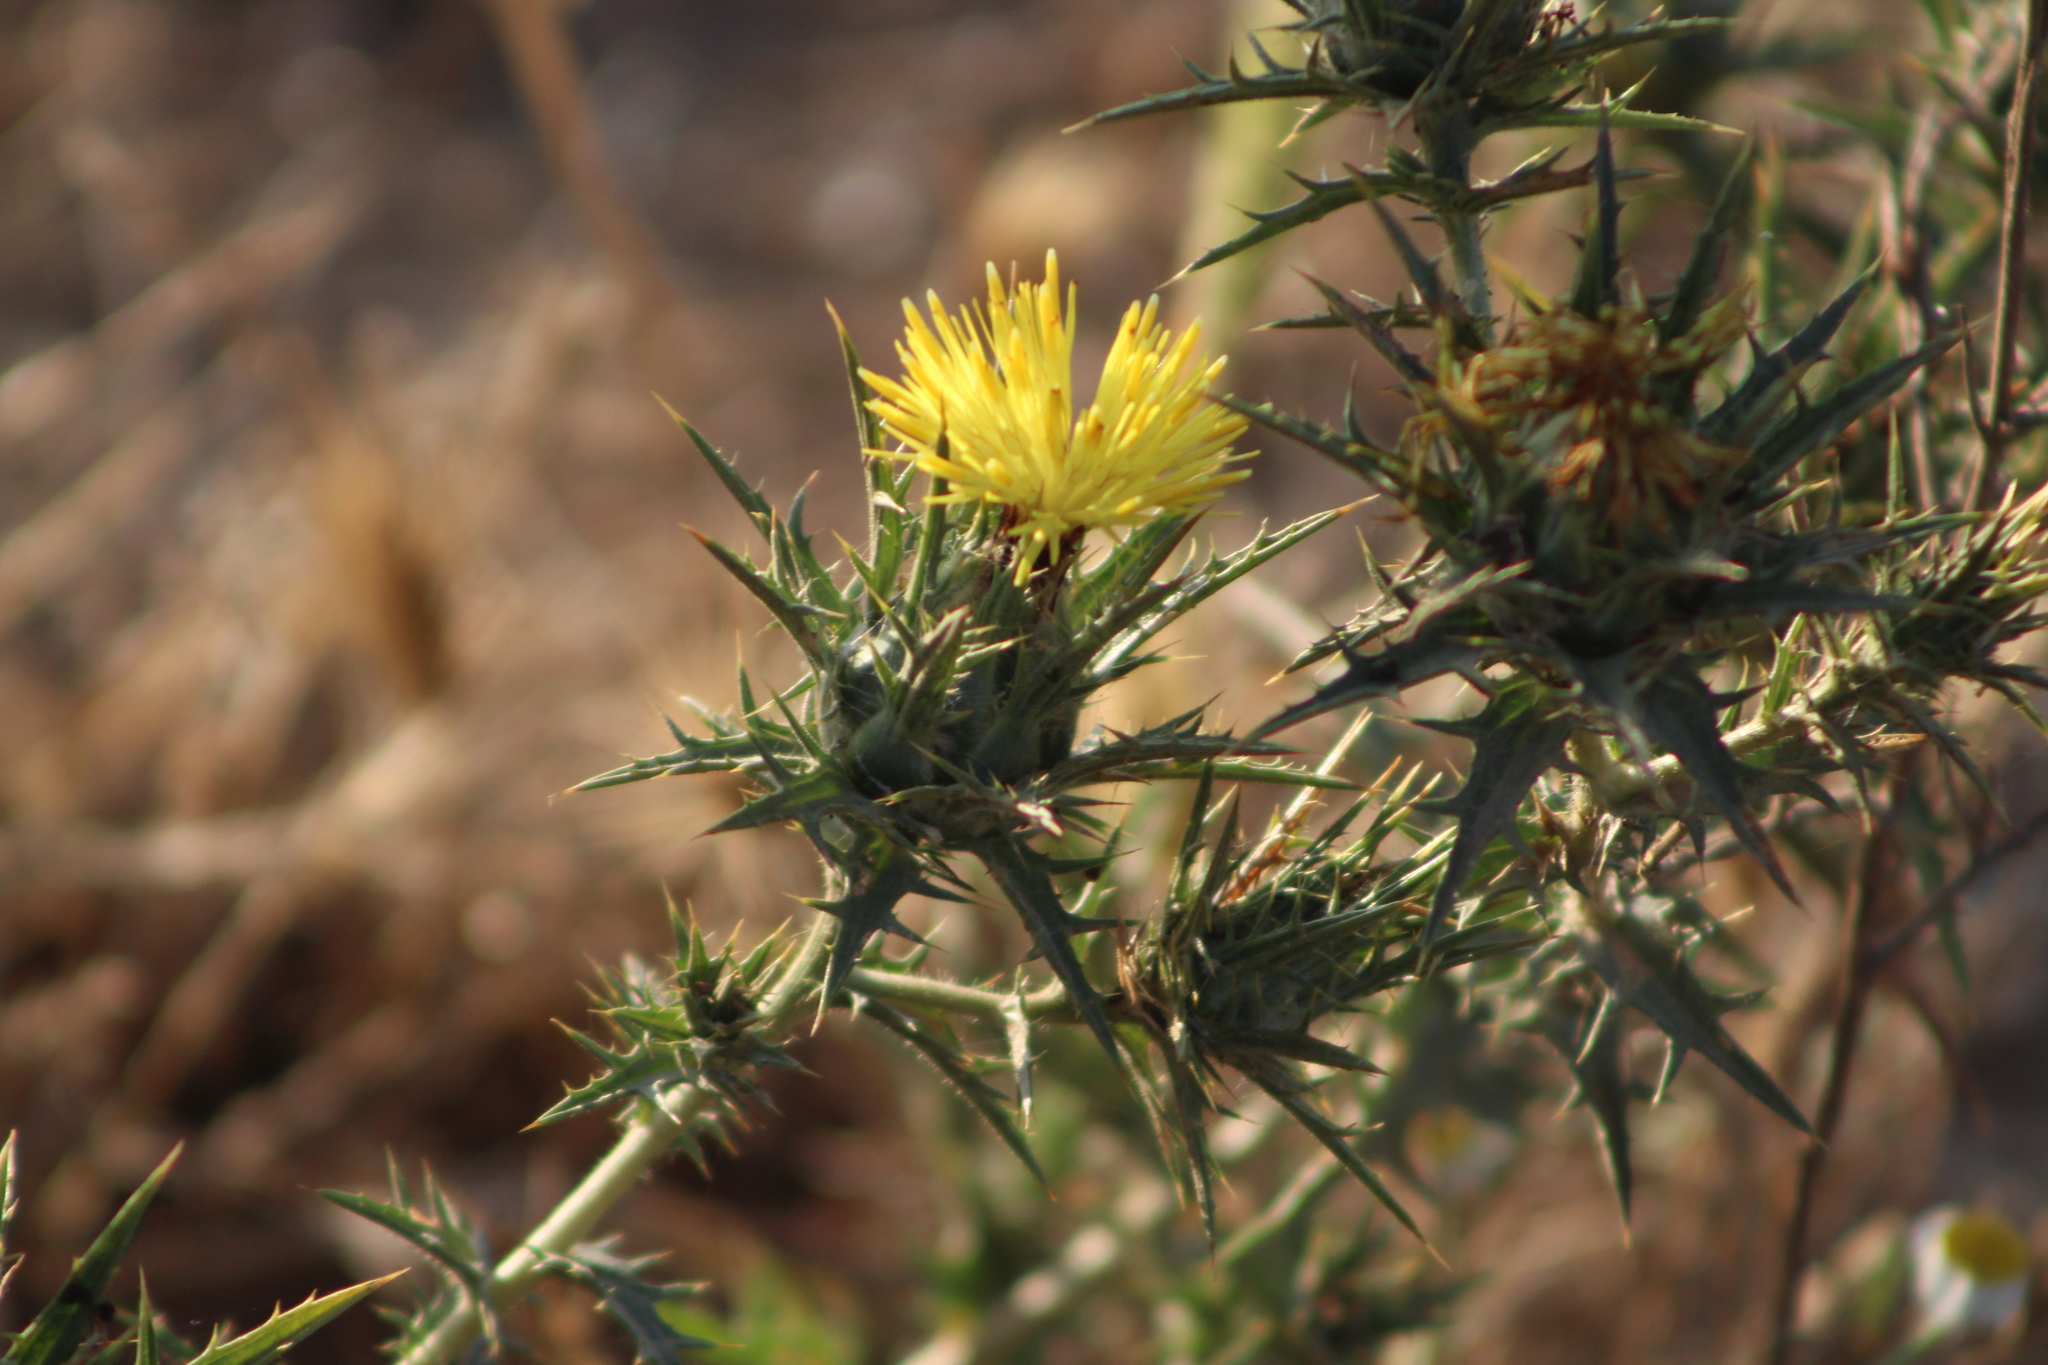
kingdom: Plantae
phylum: Tracheophyta
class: Magnoliopsida
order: Asterales
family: Asteraceae
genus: Carthamus
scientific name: Carthamus lanatus
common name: Downy safflower
